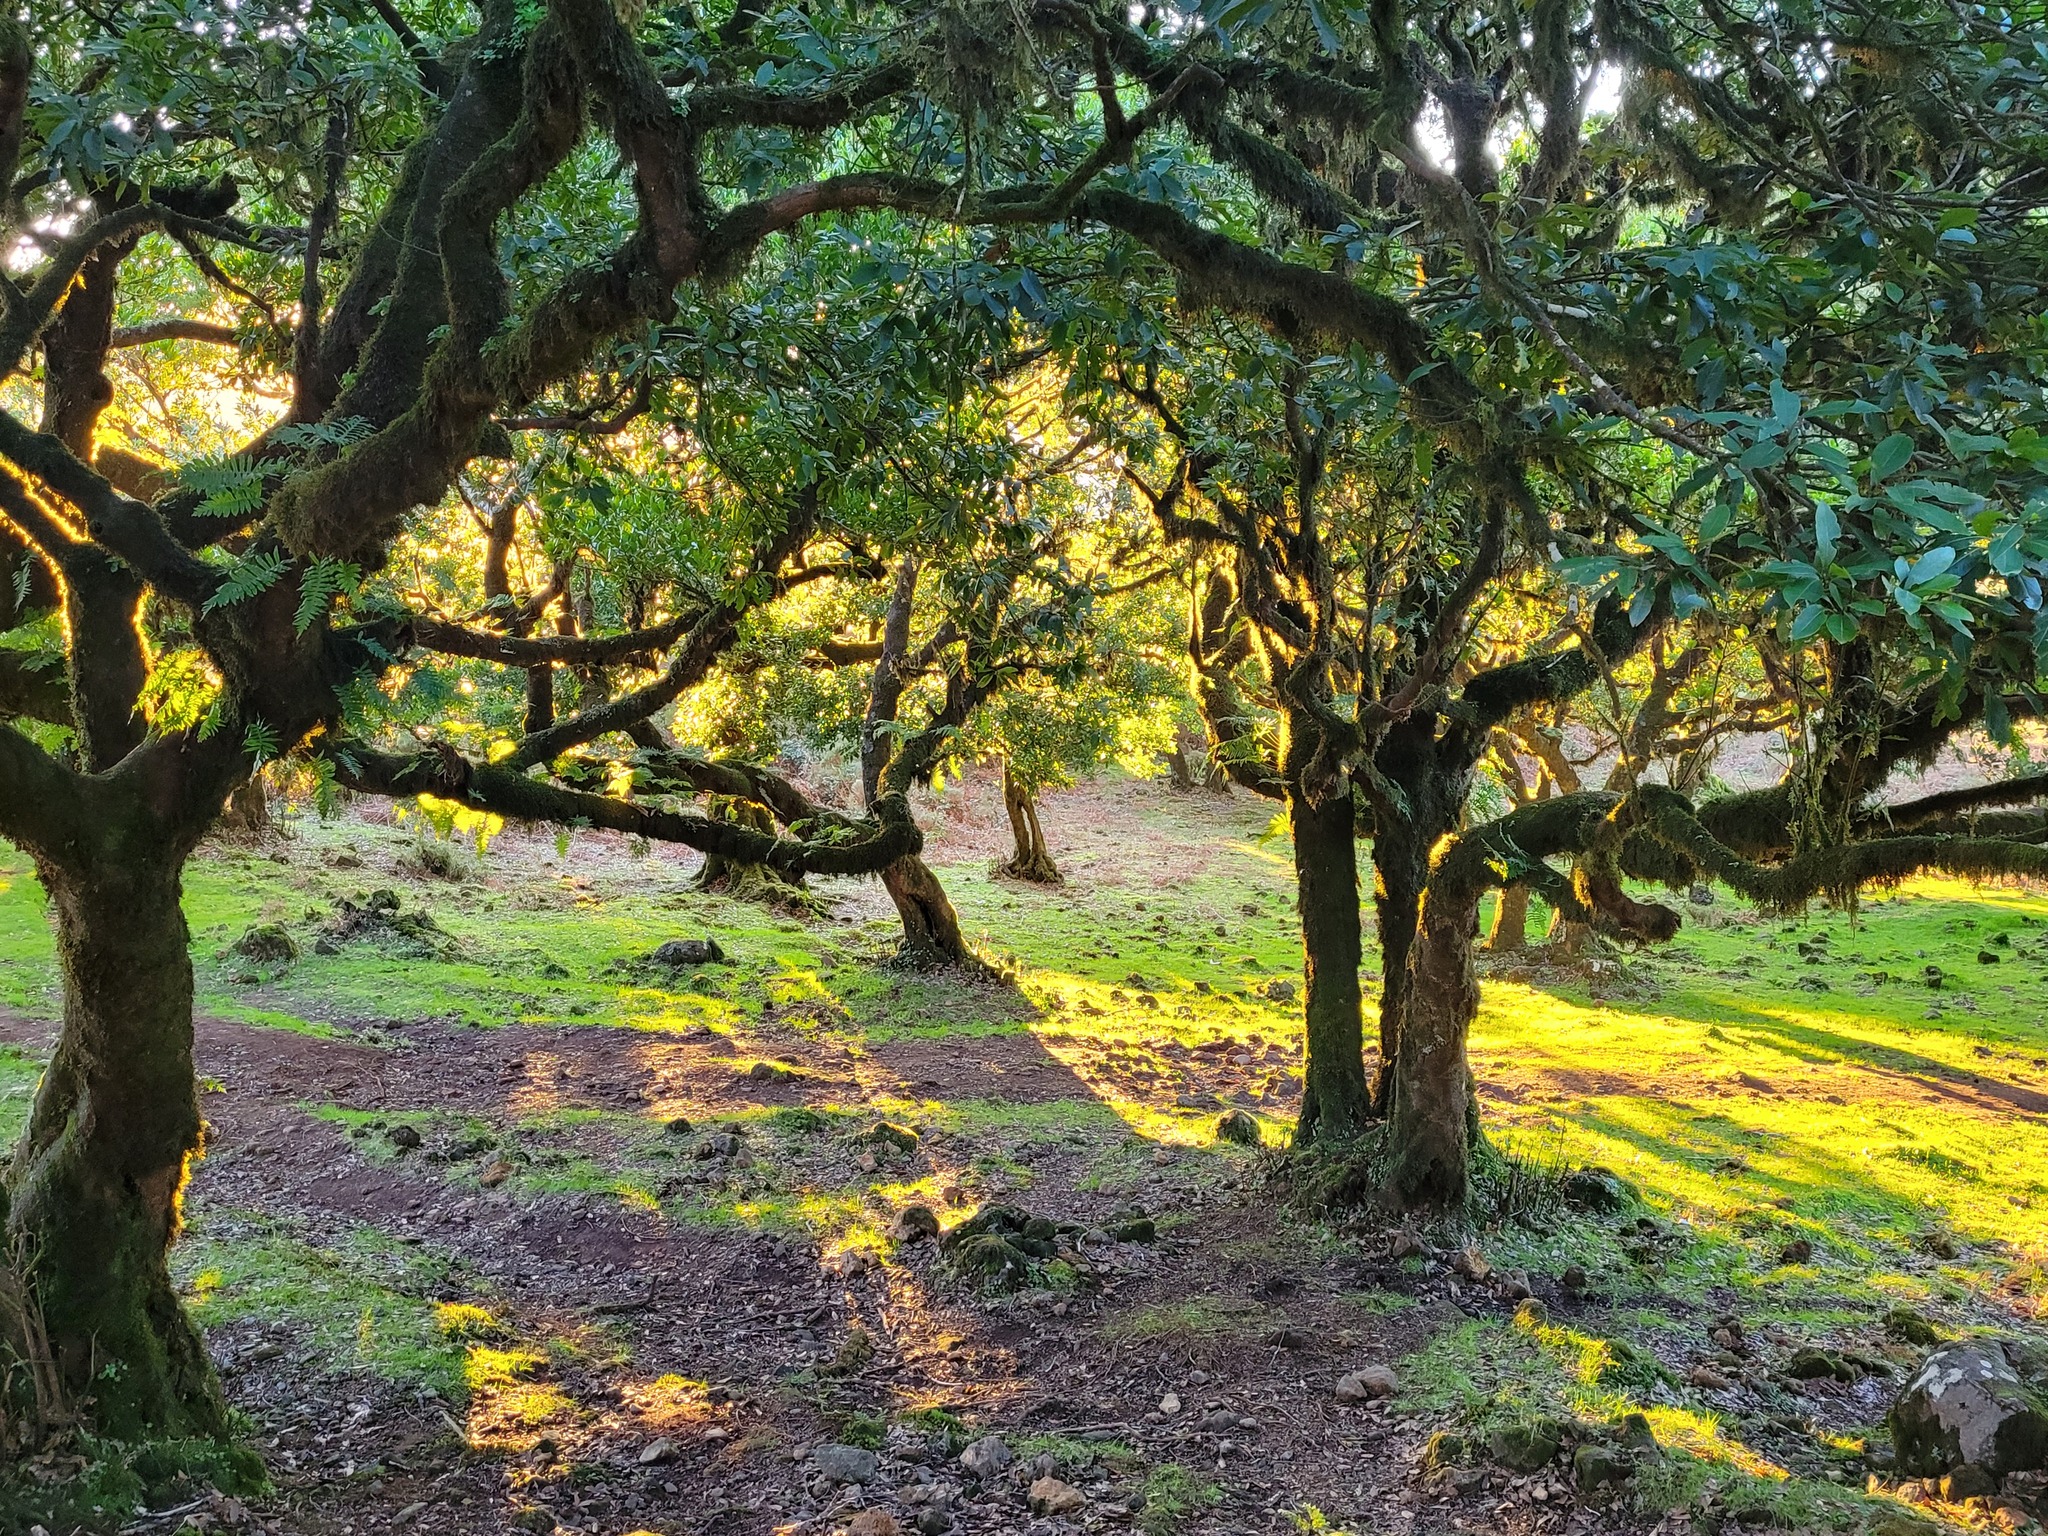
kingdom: Plantae
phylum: Tracheophyta
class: Magnoliopsida
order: Laurales
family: Lauraceae
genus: Mespilodaphne
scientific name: Mespilodaphne foetens
